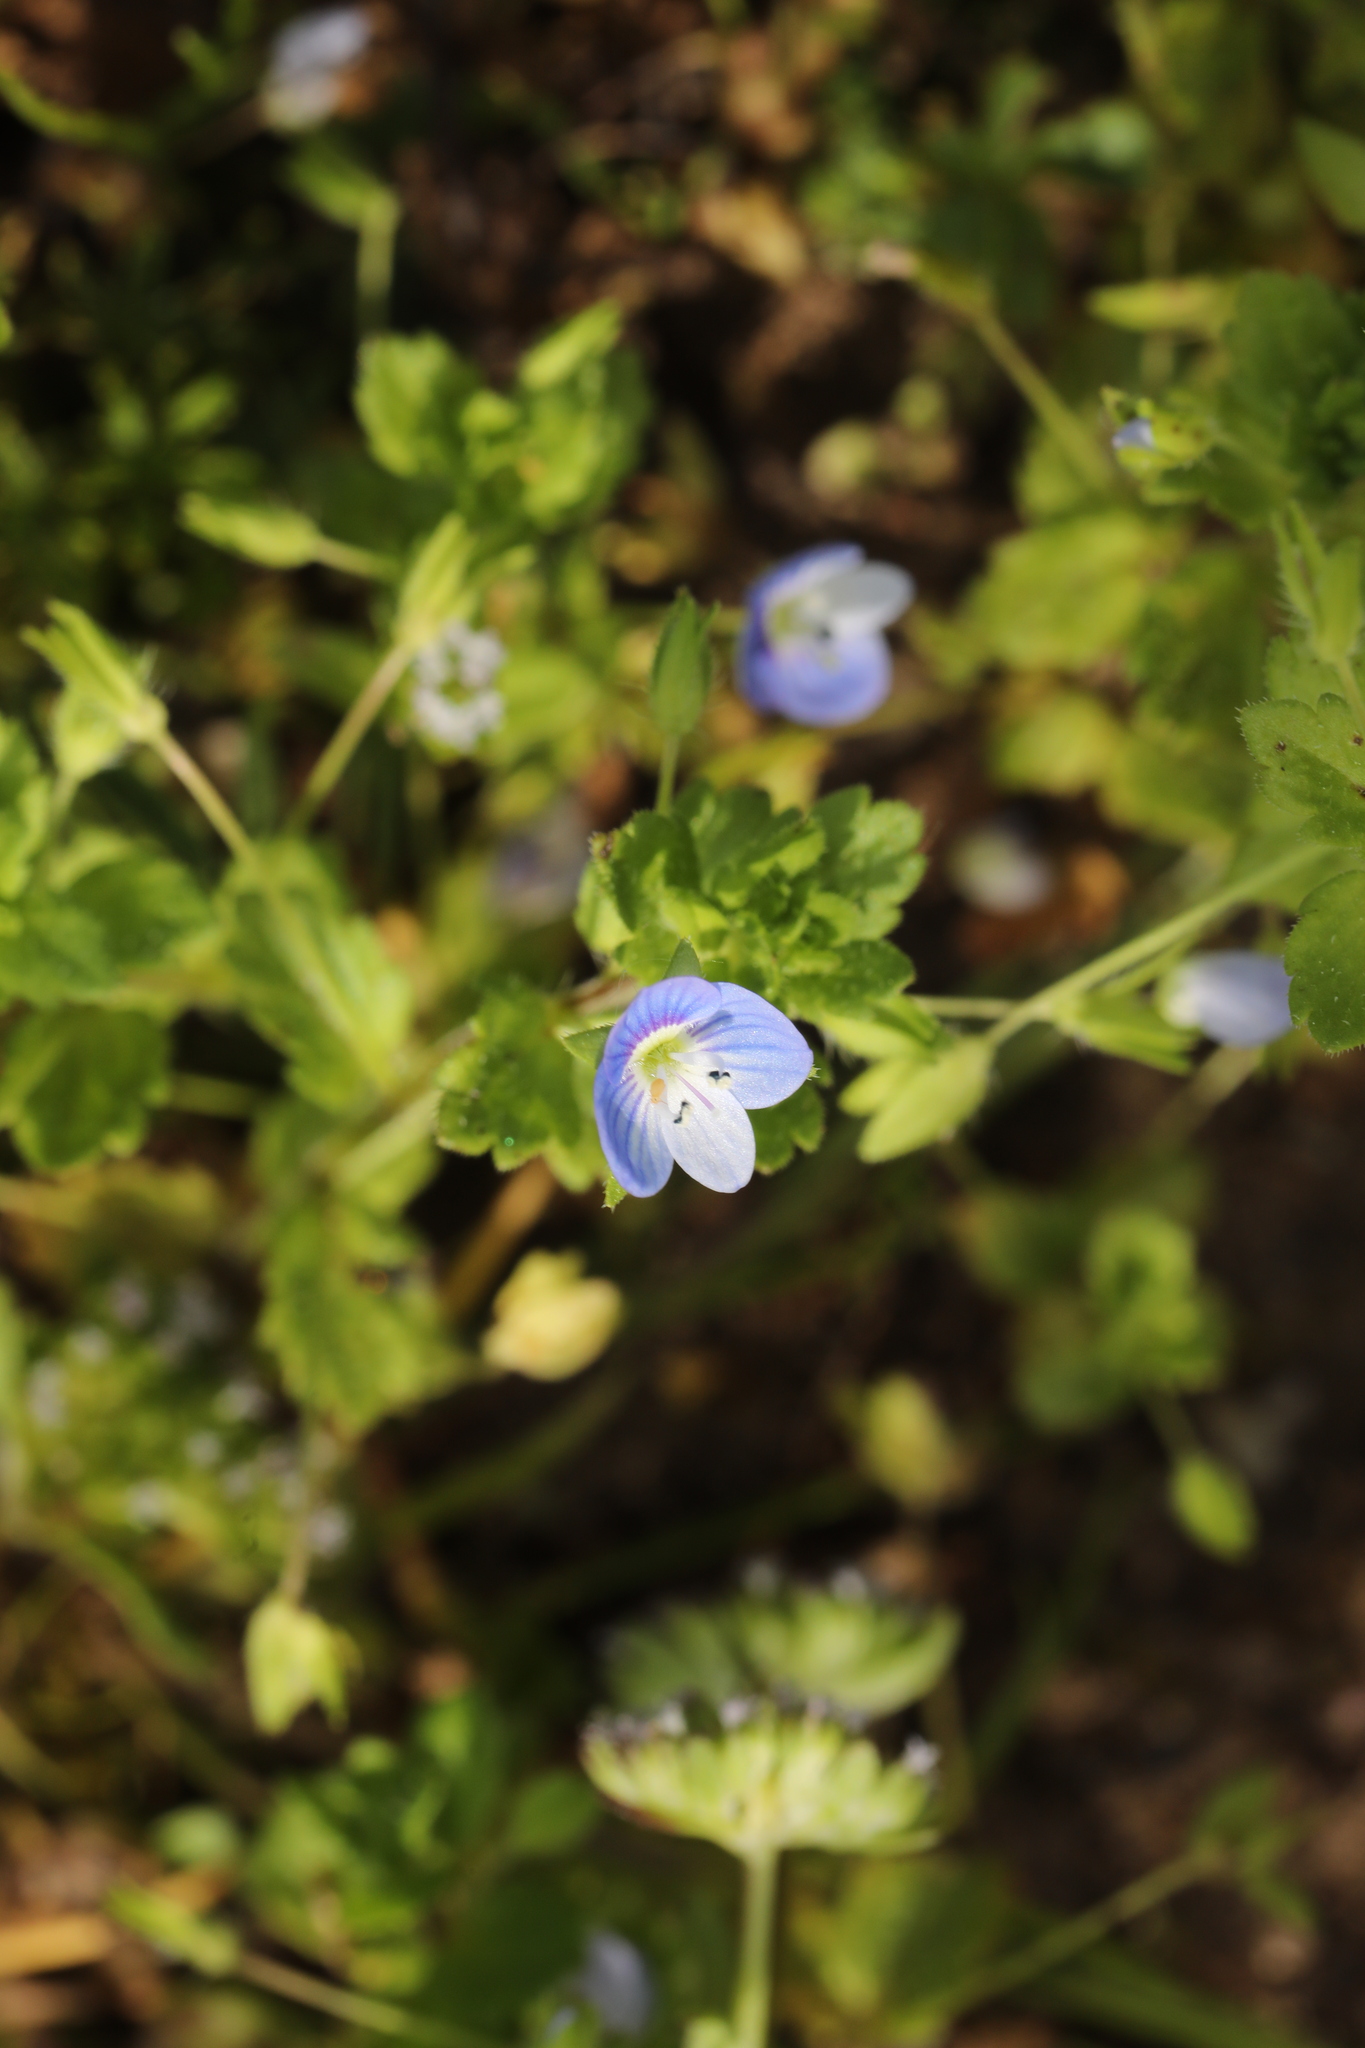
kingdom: Plantae
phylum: Tracheophyta
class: Magnoliopsida
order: Lamiales
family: Plantaginaceae
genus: Veronica
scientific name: Veronica persica
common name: Common field-speedwell
